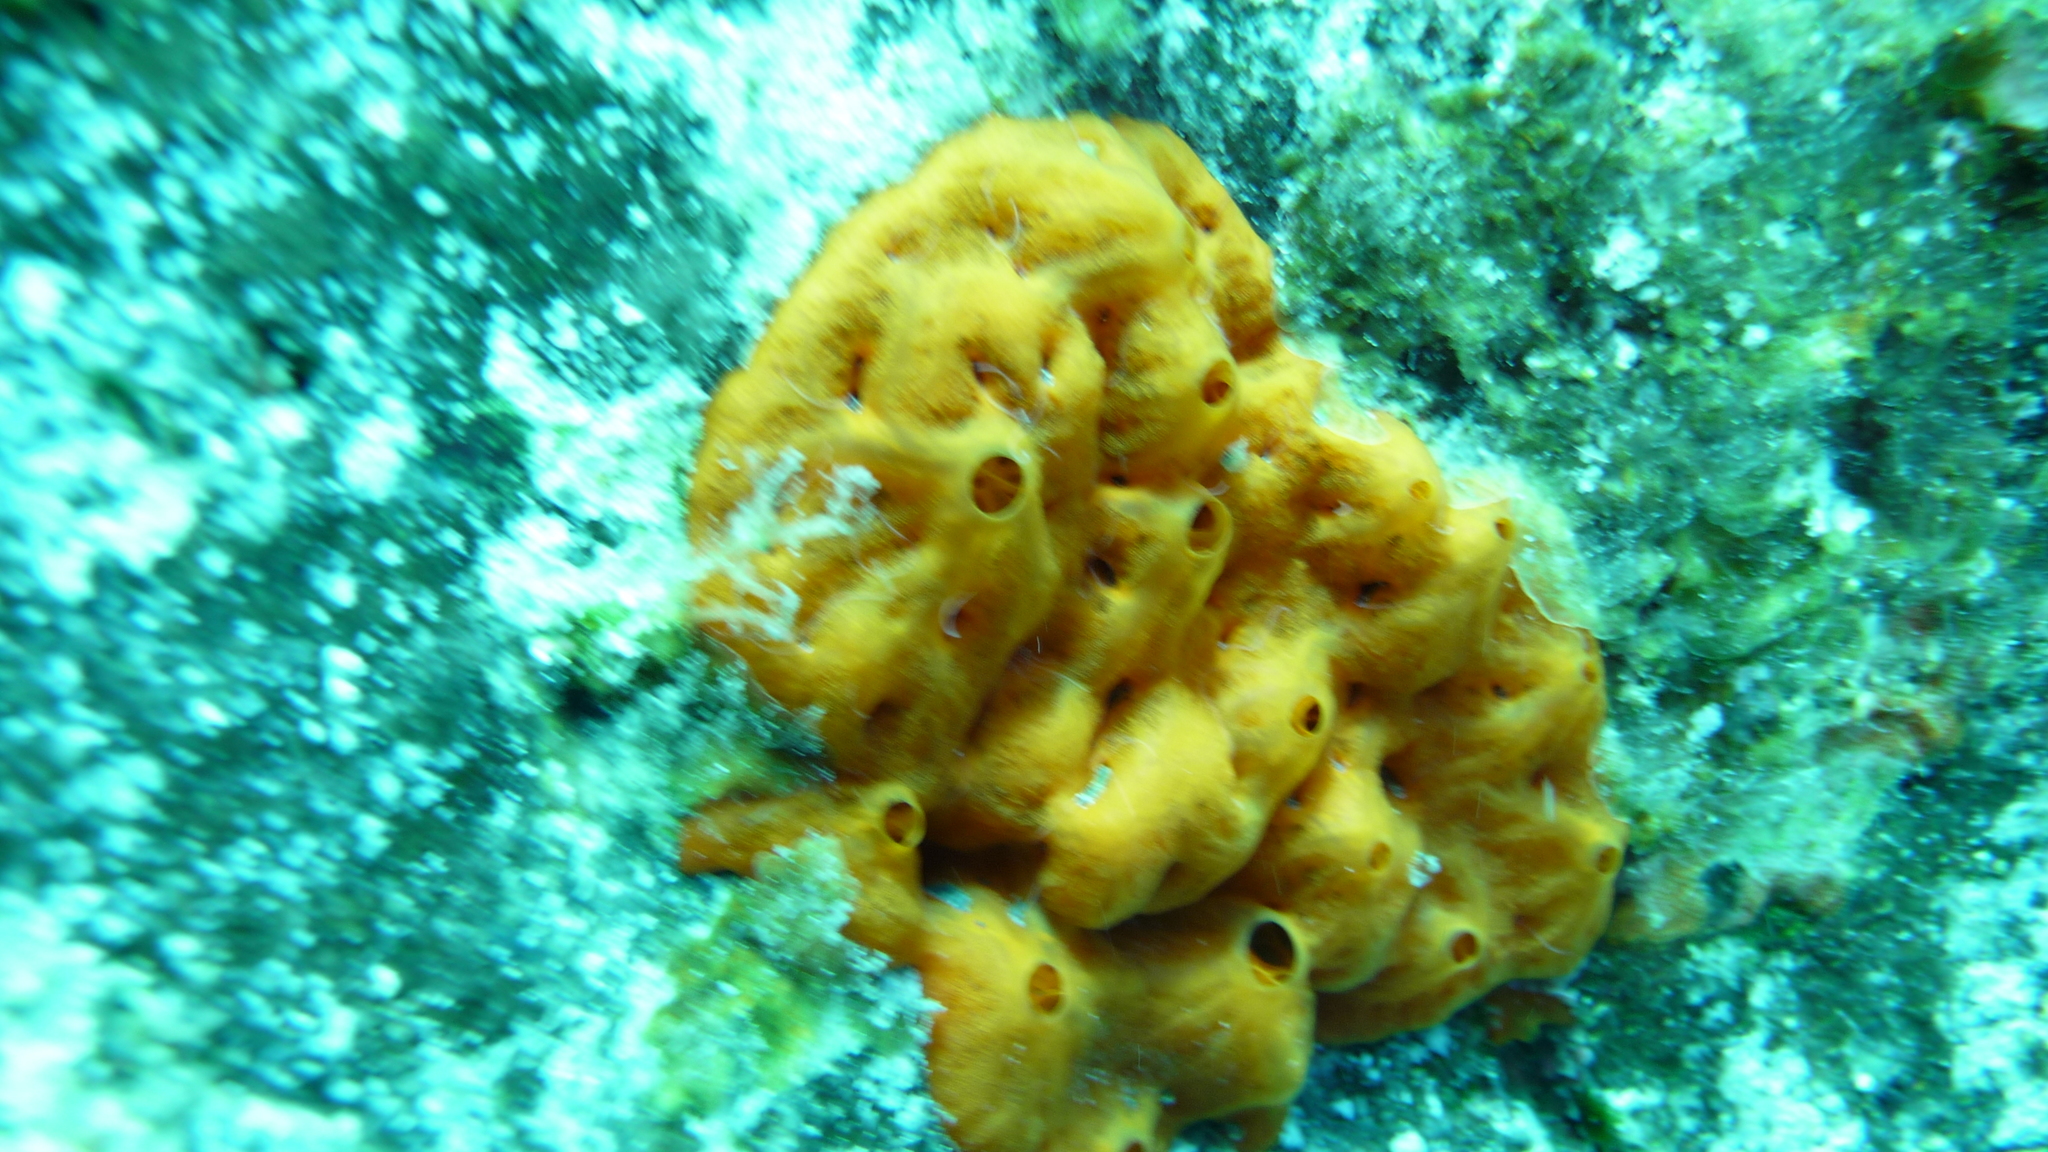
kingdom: Animalia
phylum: Porifera
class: Demospongiae
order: Poecilosclerida
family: Crambeidae
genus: Crambe
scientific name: Crambe crambe
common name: Orange-red encrusting sponge
